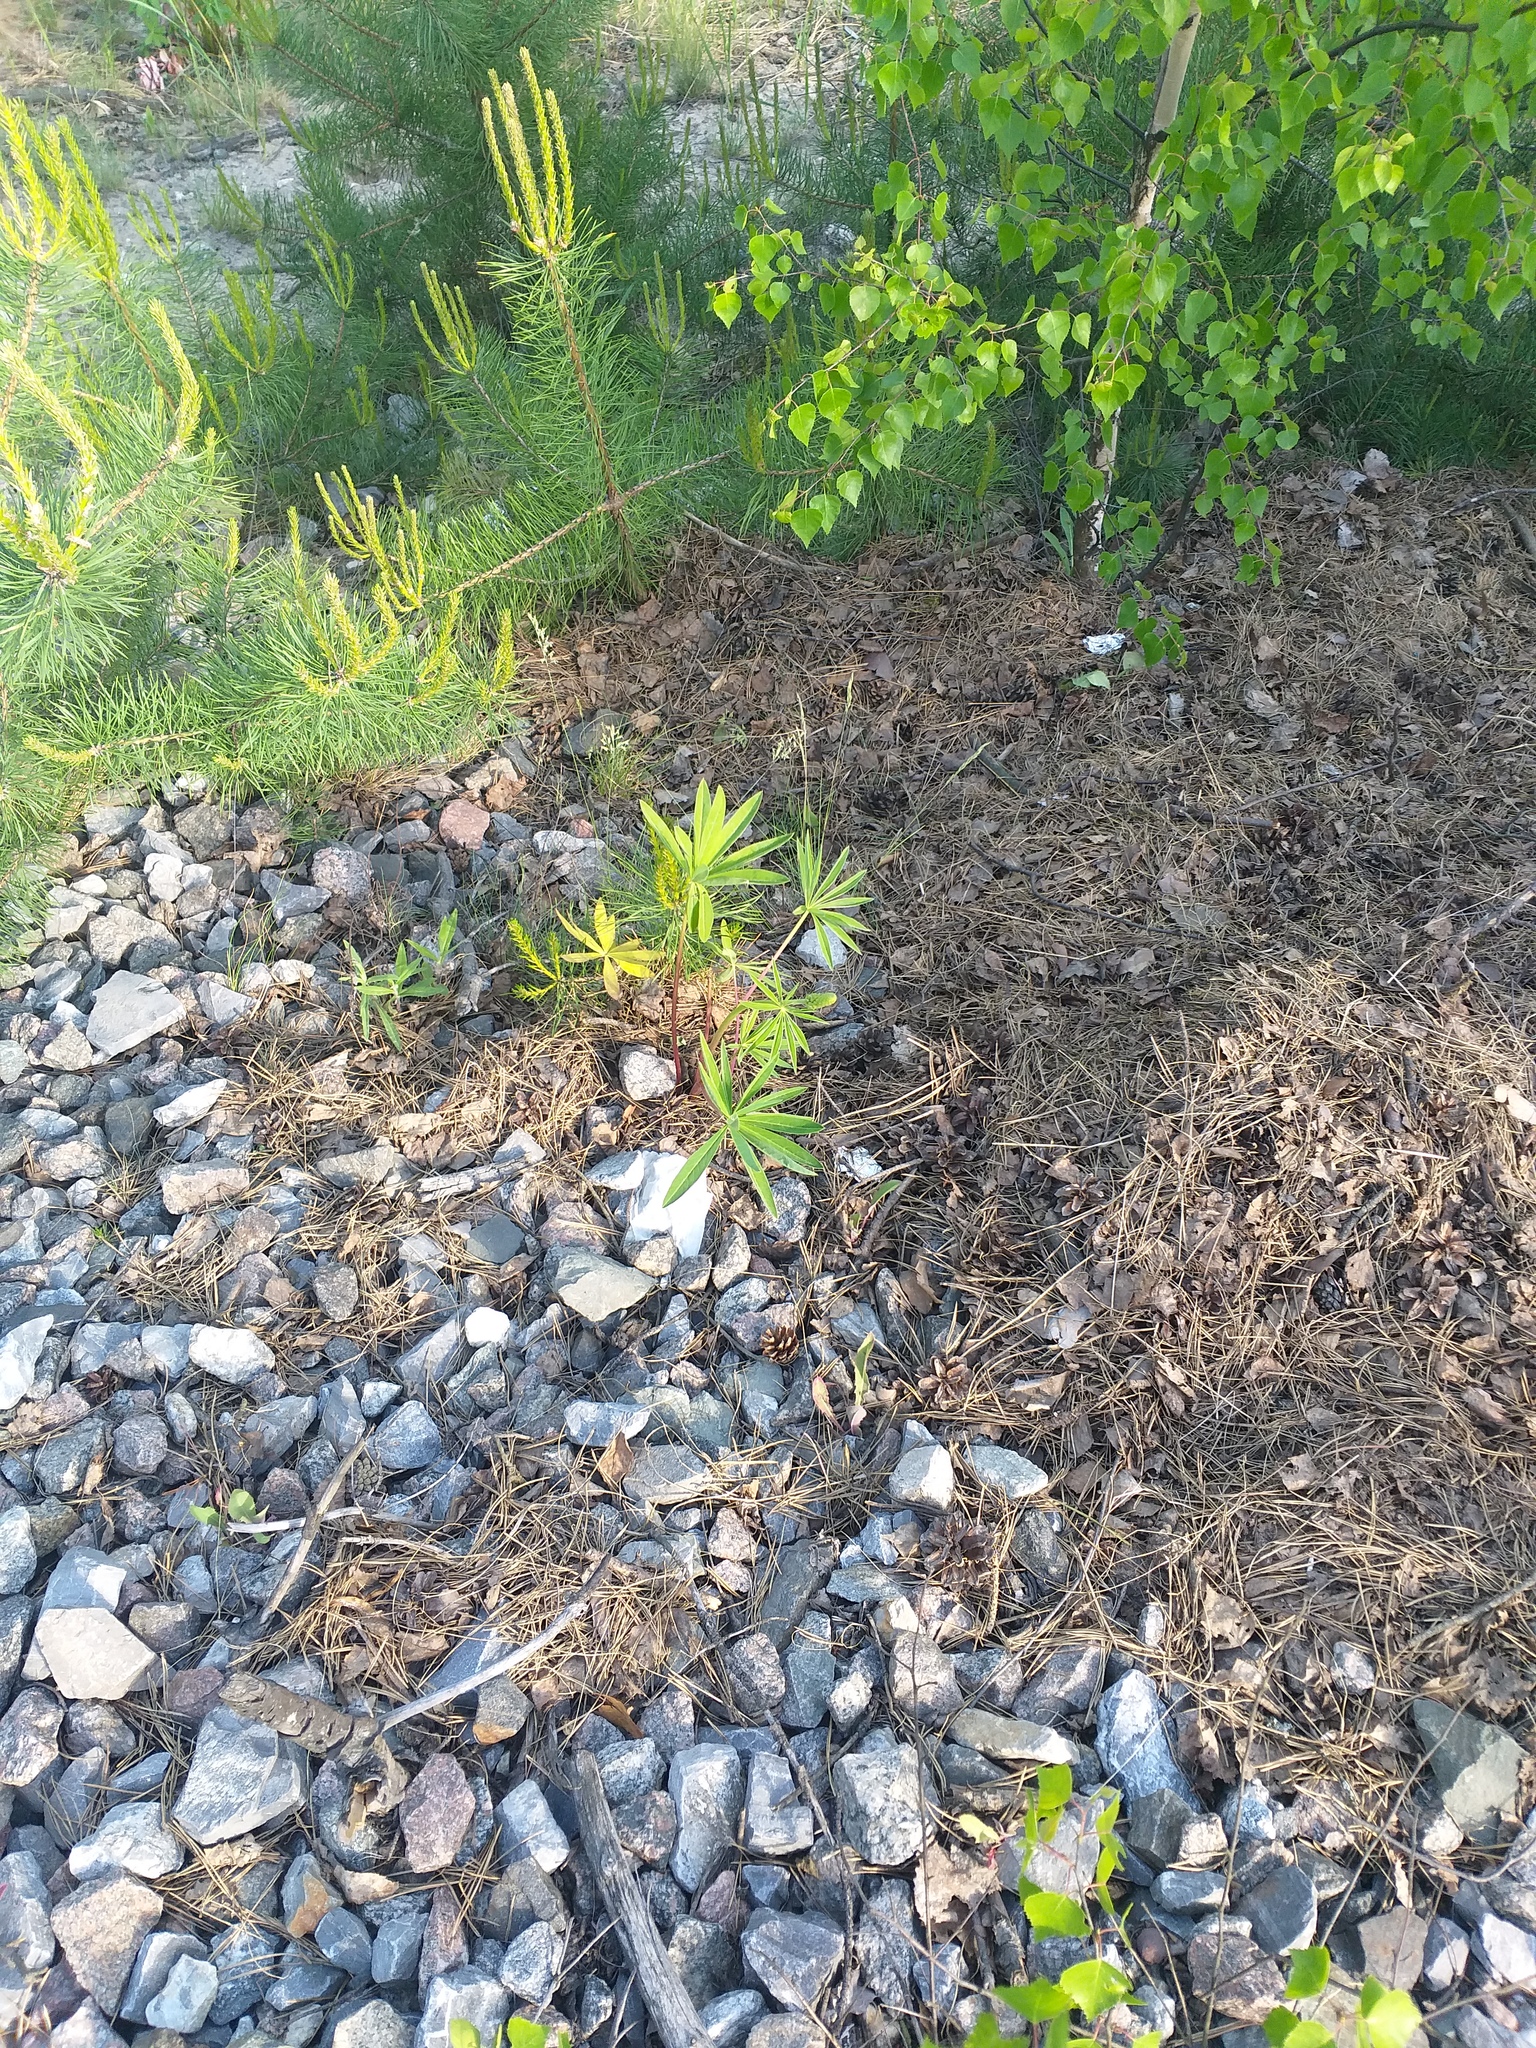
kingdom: Plantae
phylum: Tracheophyta
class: Magnoliopsida
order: Fabales
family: Fabaceae
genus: Lupinus
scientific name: Lupinus polyphyllus
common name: Garden lupin
